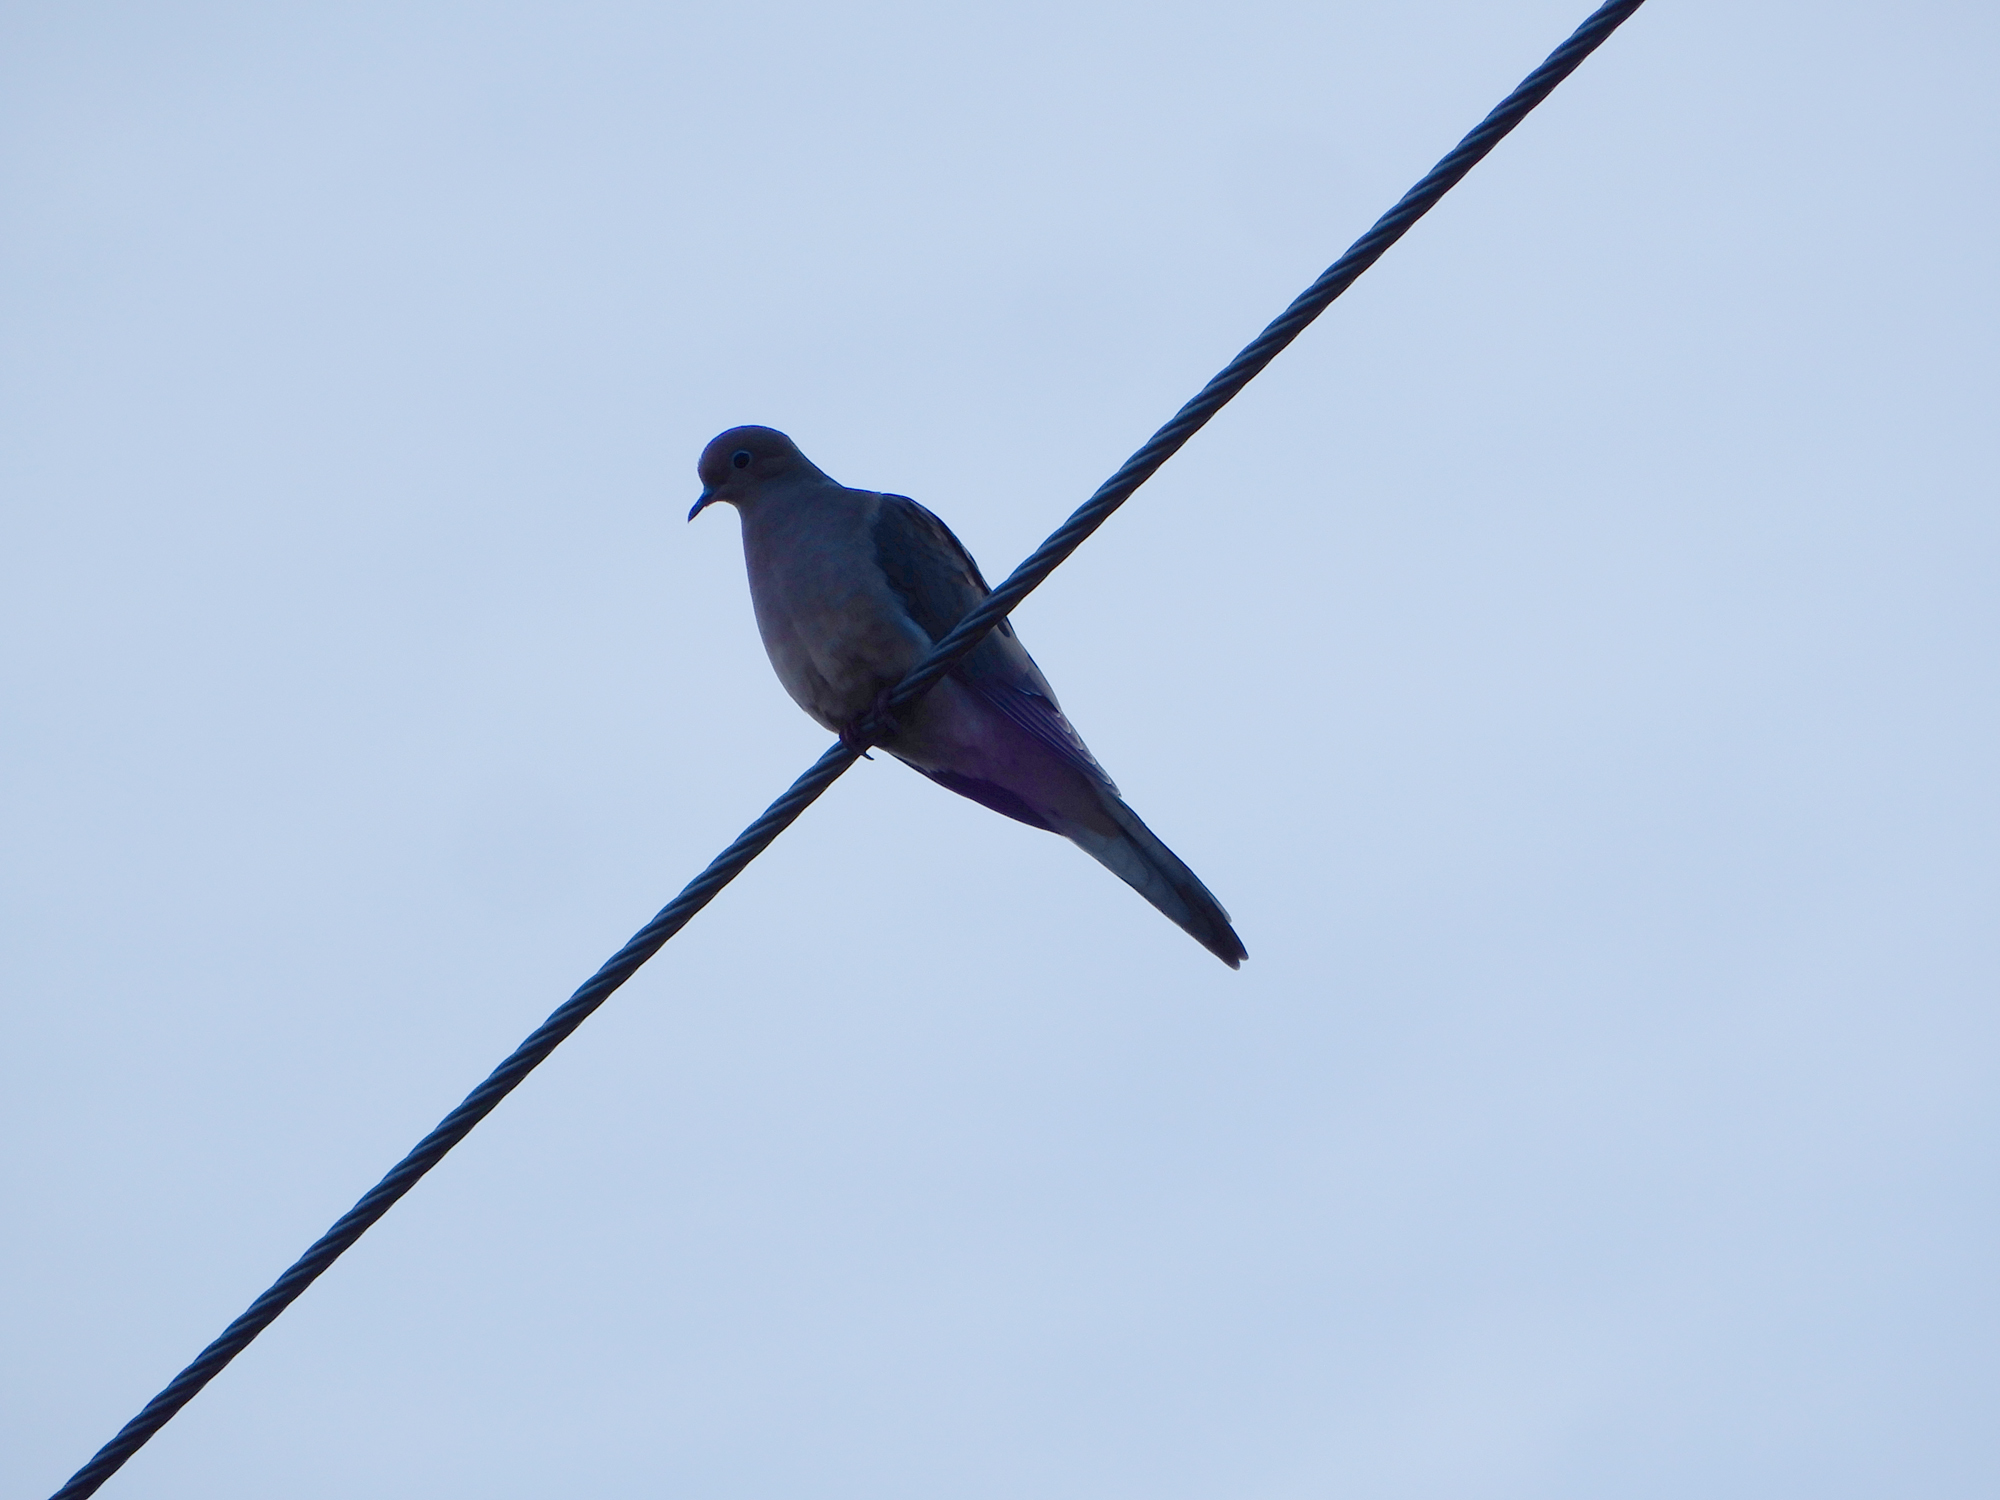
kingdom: Animalia
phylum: Chordata
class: Aves
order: Columbiformes
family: Columbidae
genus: Zenaida
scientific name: Zenaida macroura
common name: Mourning dove
